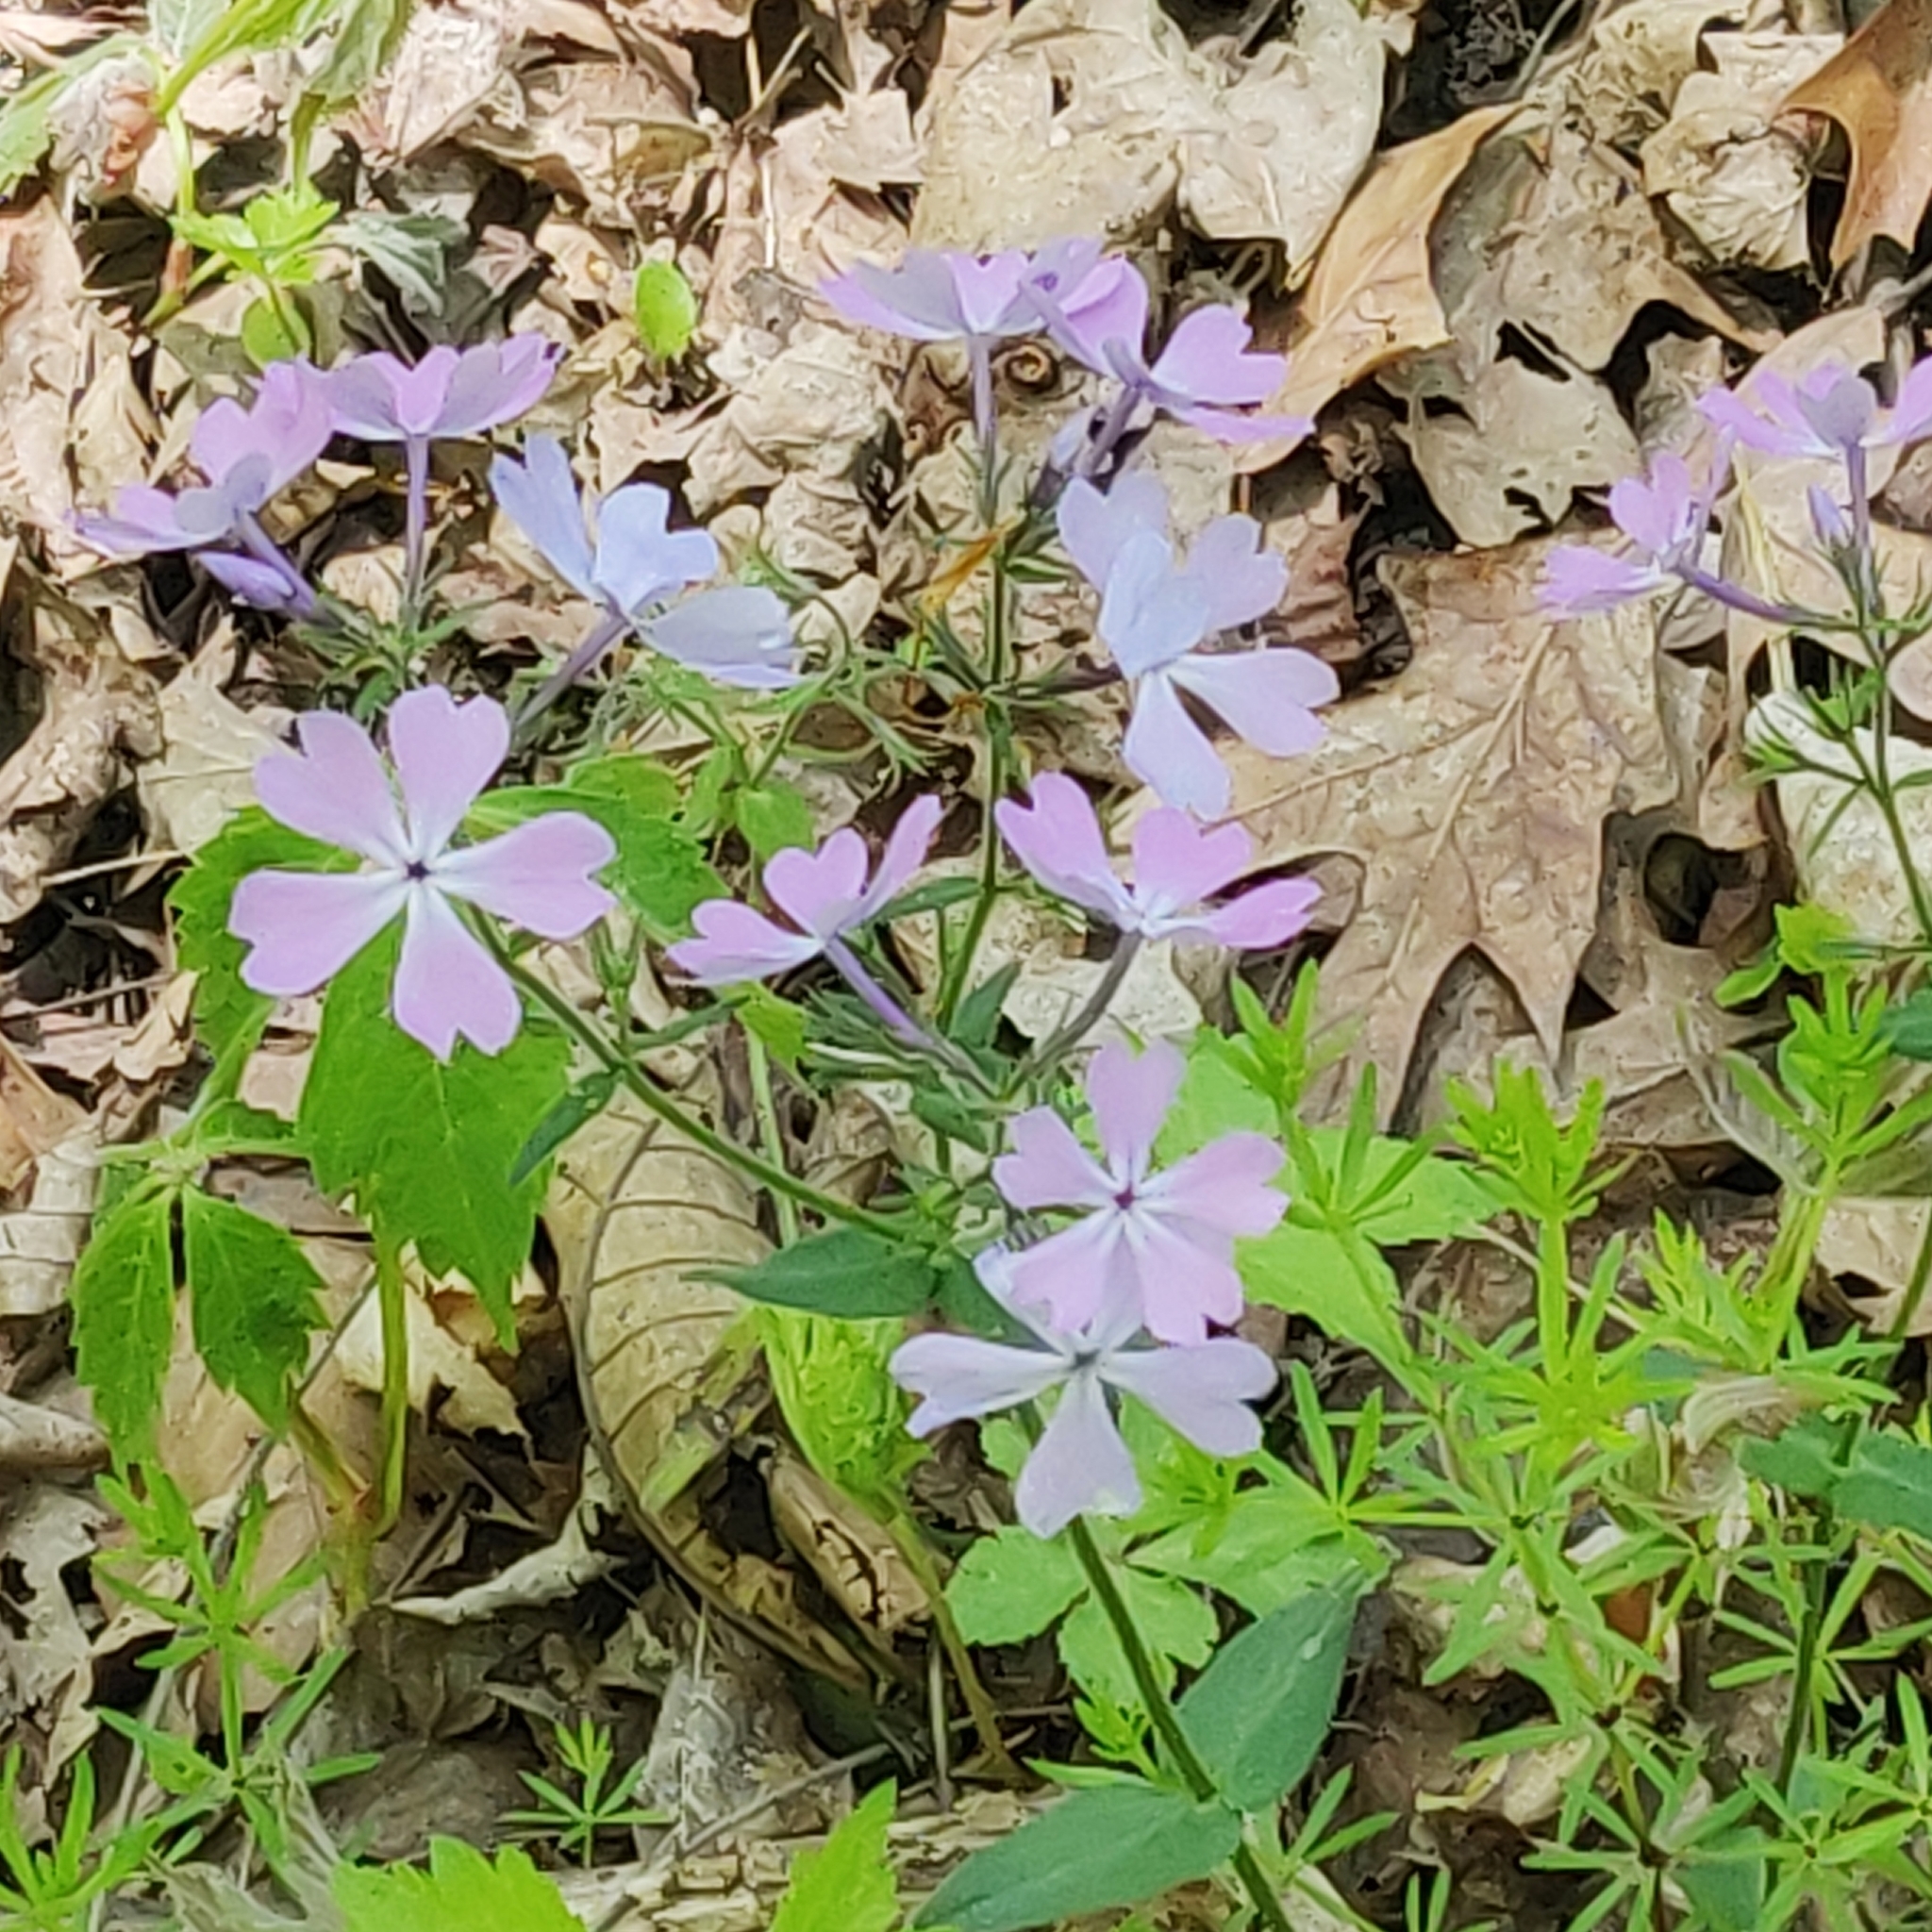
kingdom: Plantae
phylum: Tracheophyta
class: Magnoliopsida
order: Ericales
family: Polemoniaceae
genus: Phlox
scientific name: Phlox divaricata
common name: Blue phlox
